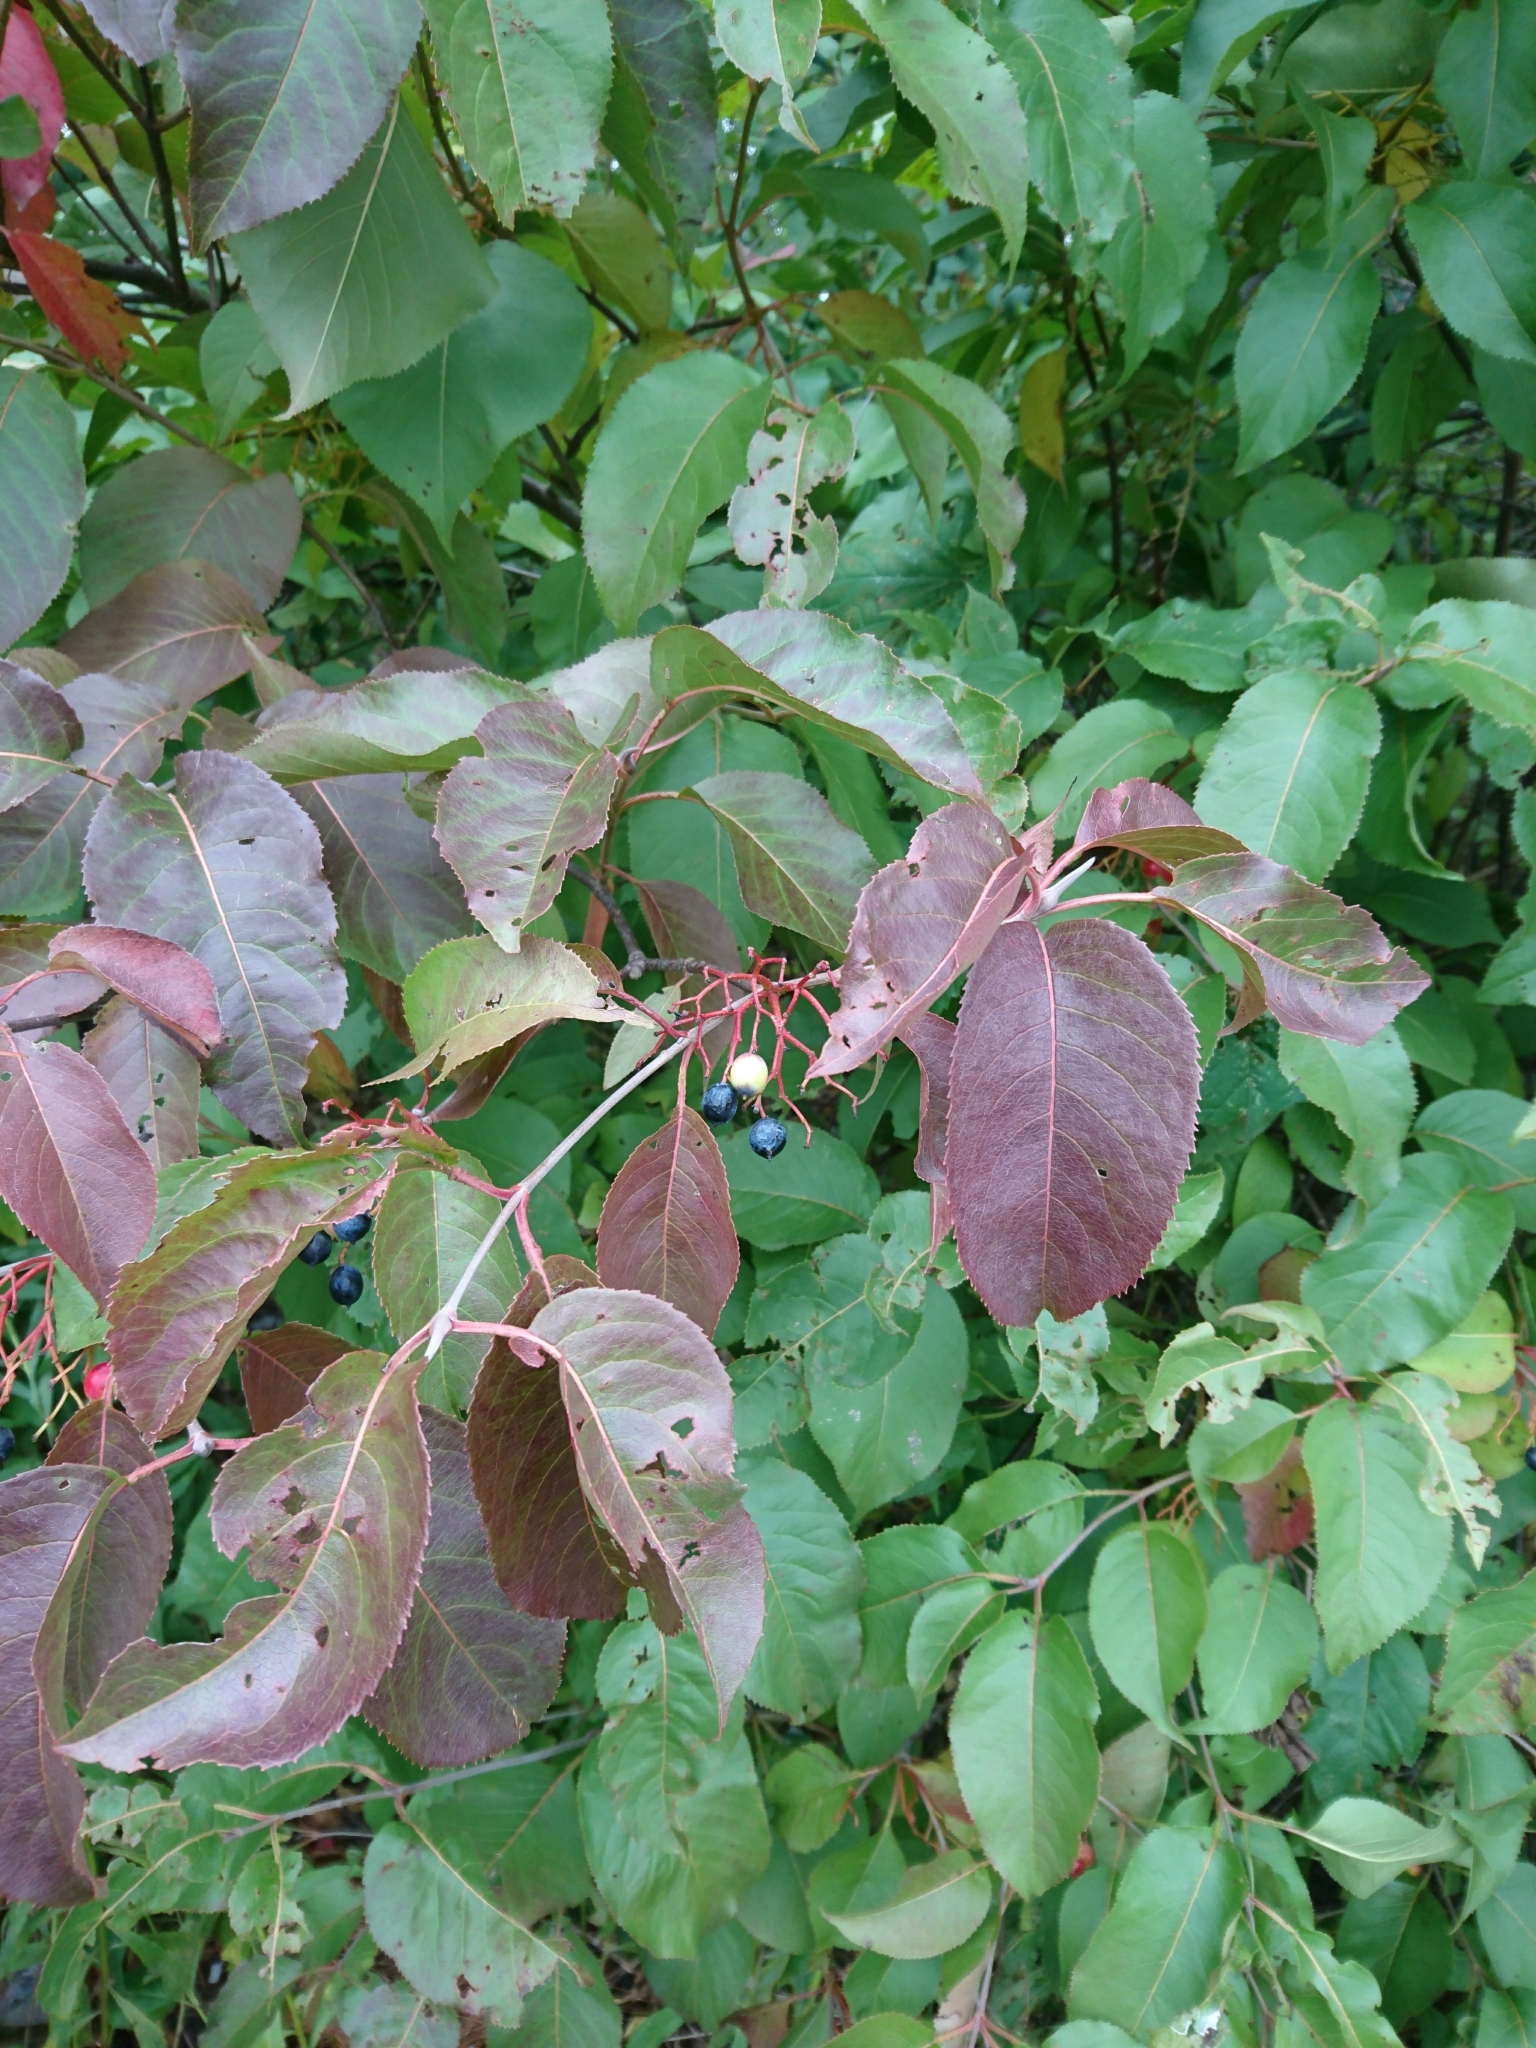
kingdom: Plantae
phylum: Tracheophyta
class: Magnoliopsida
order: Dipsacales
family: Viburnaceae
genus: Viburnum
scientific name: Viburnum lentago
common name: Black haw
